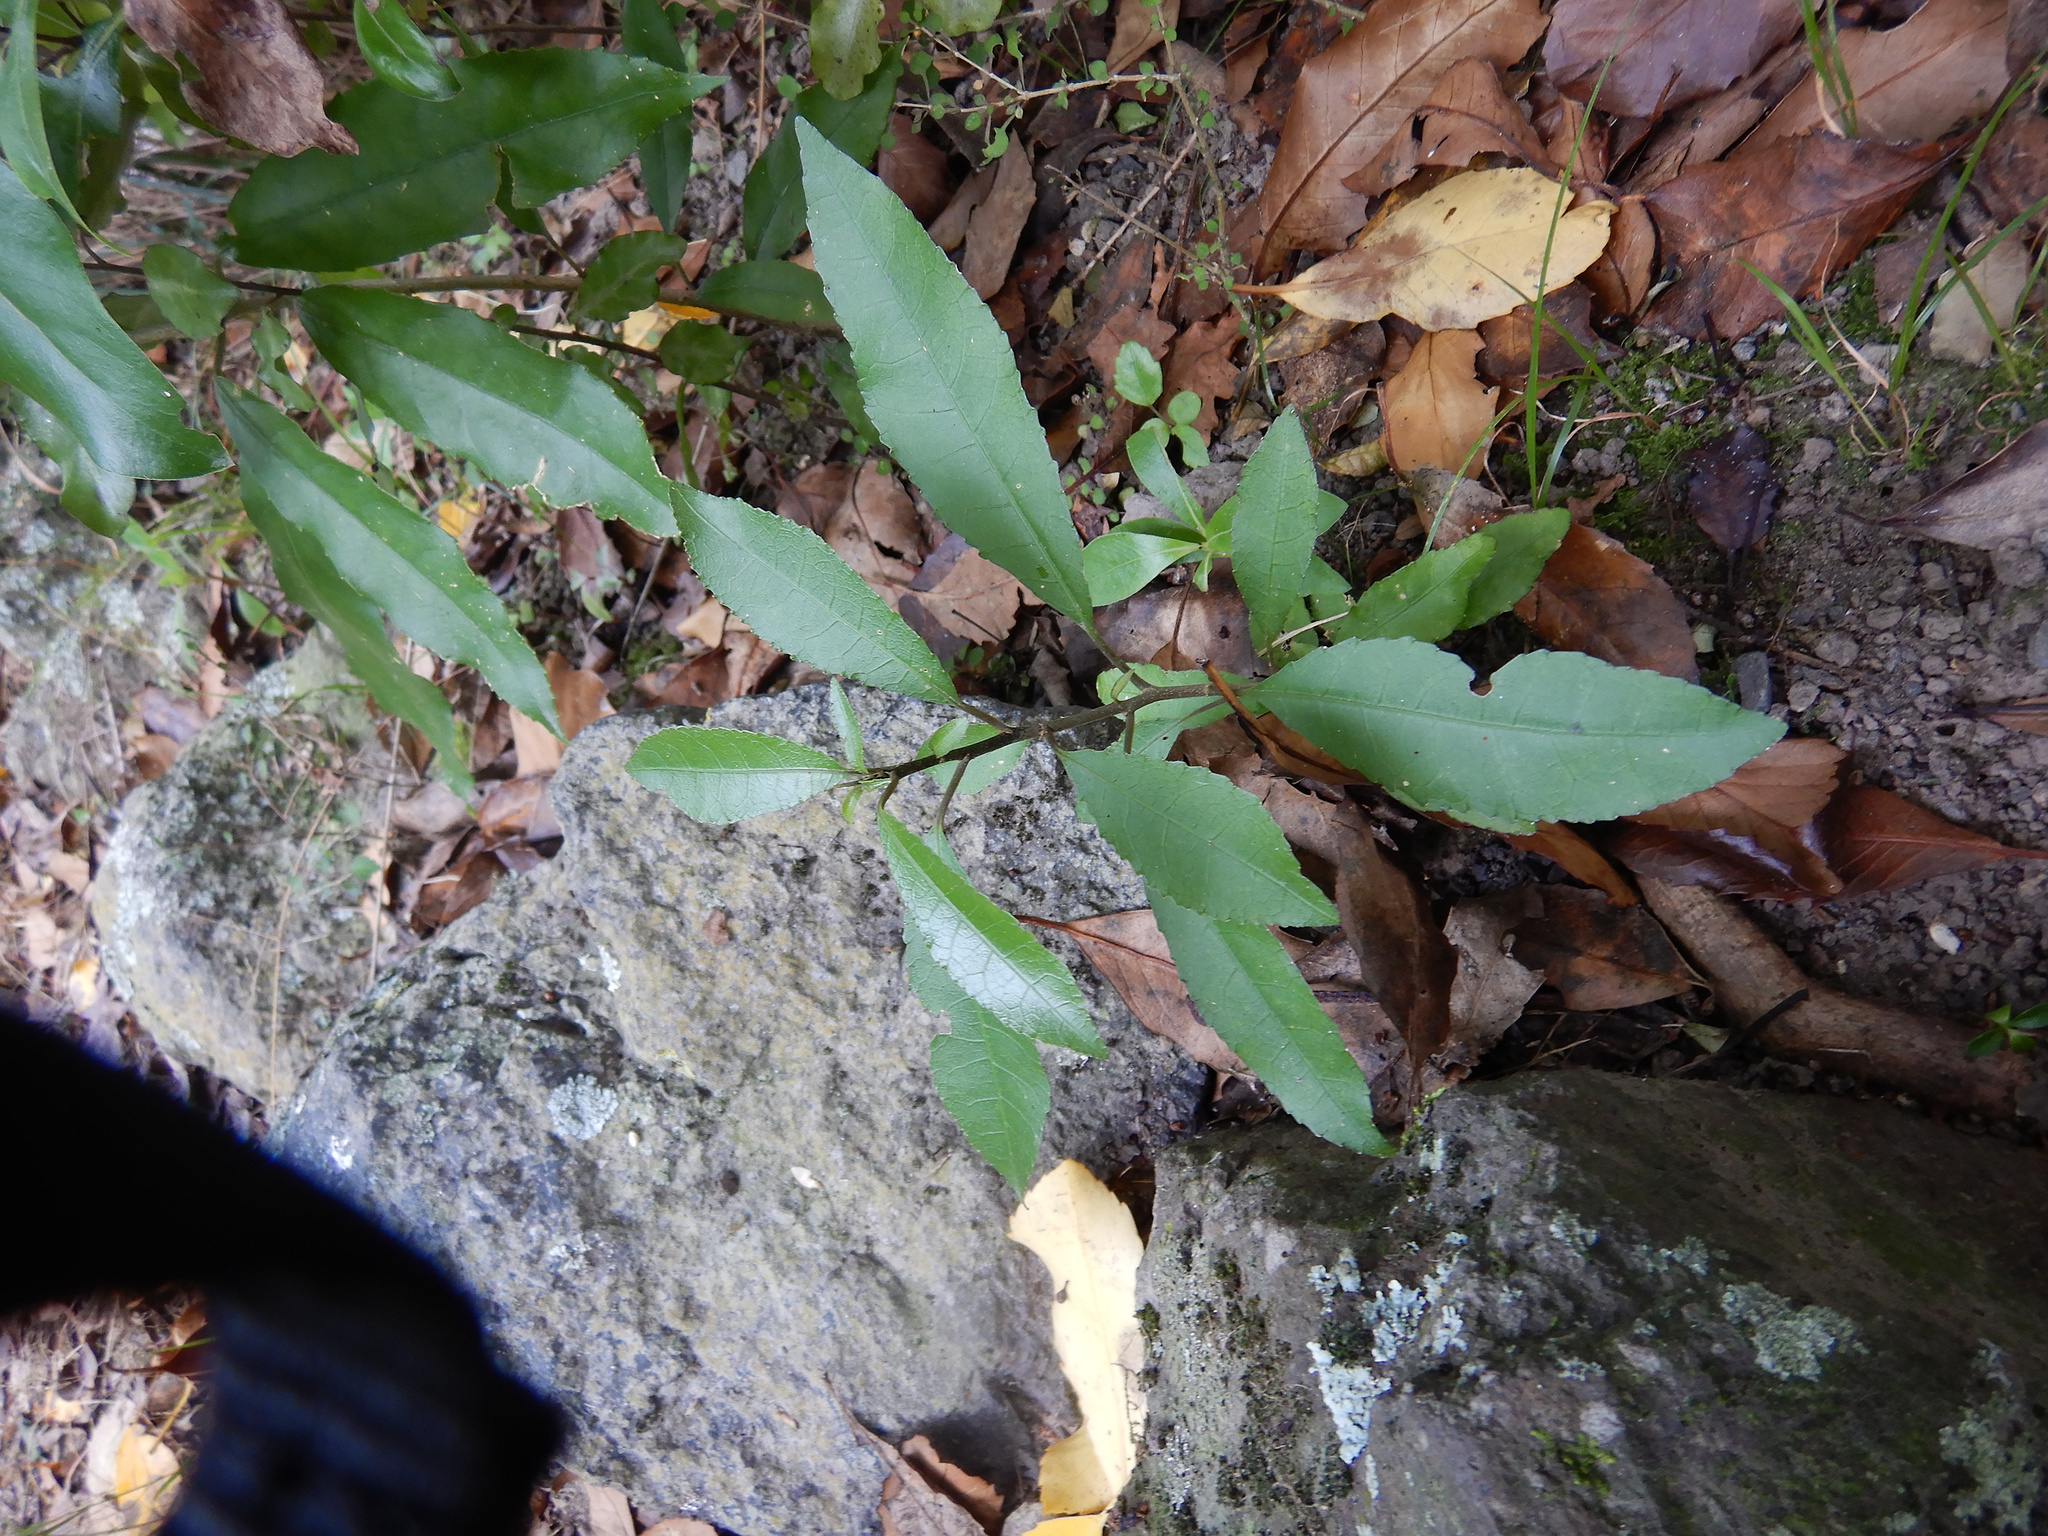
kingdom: Plantae
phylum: Tracheophyta
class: Magnoliopsida
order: Malpighiales
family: Violaceae
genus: Melicytus
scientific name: Melicytus ramiflorus
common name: Mahoe
